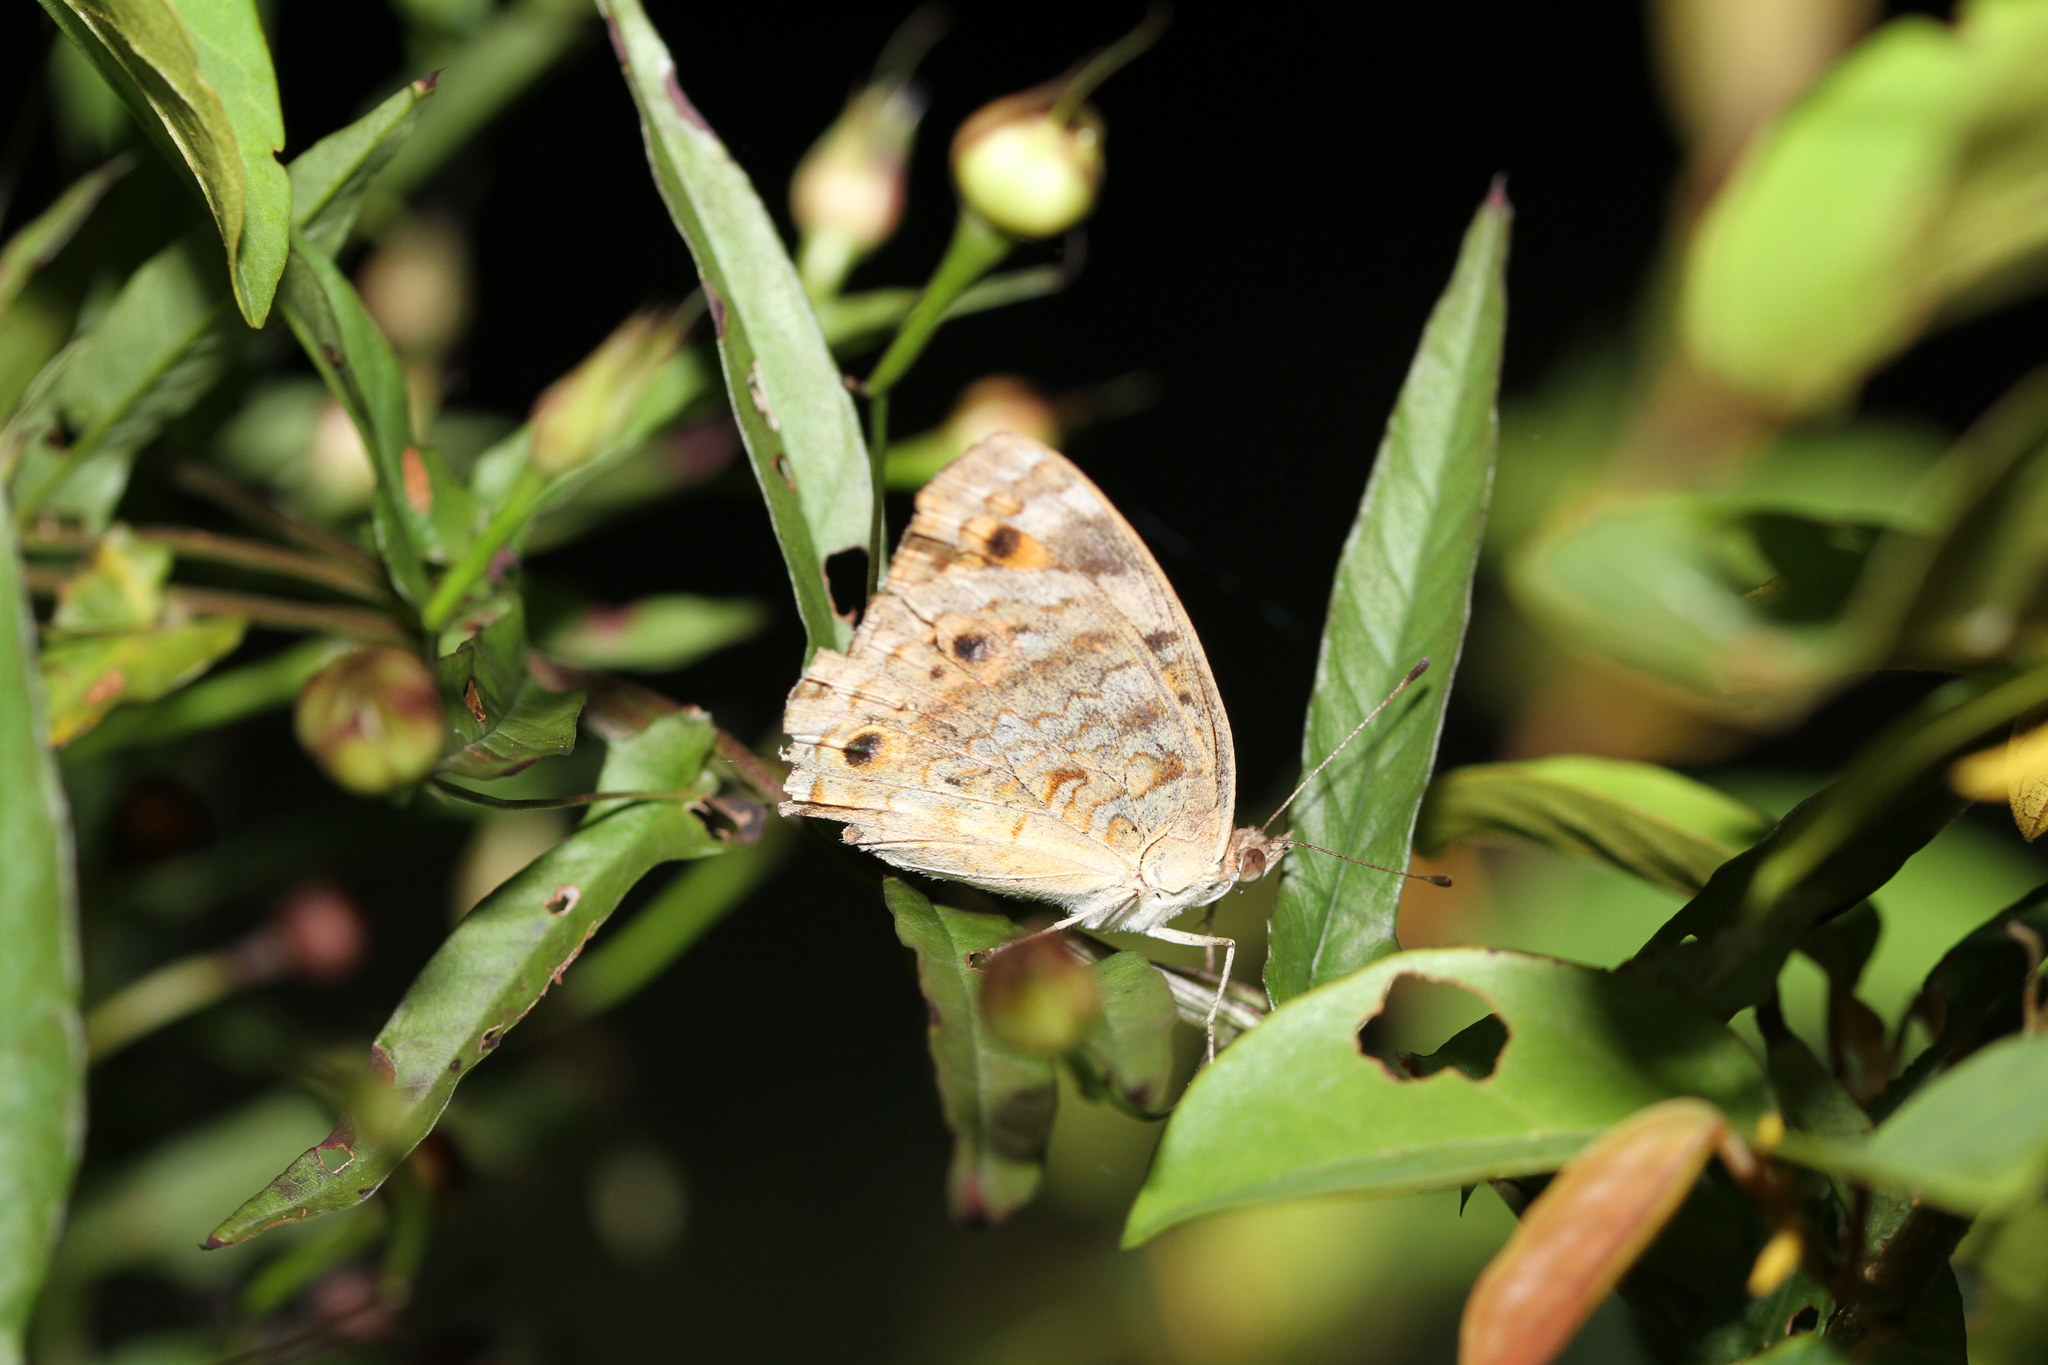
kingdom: Animalia
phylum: Arthropoda
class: Insecta
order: Lepidoptera
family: Nymphalidae
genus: Junonia
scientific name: Junonia orithya
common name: Blue pansy
